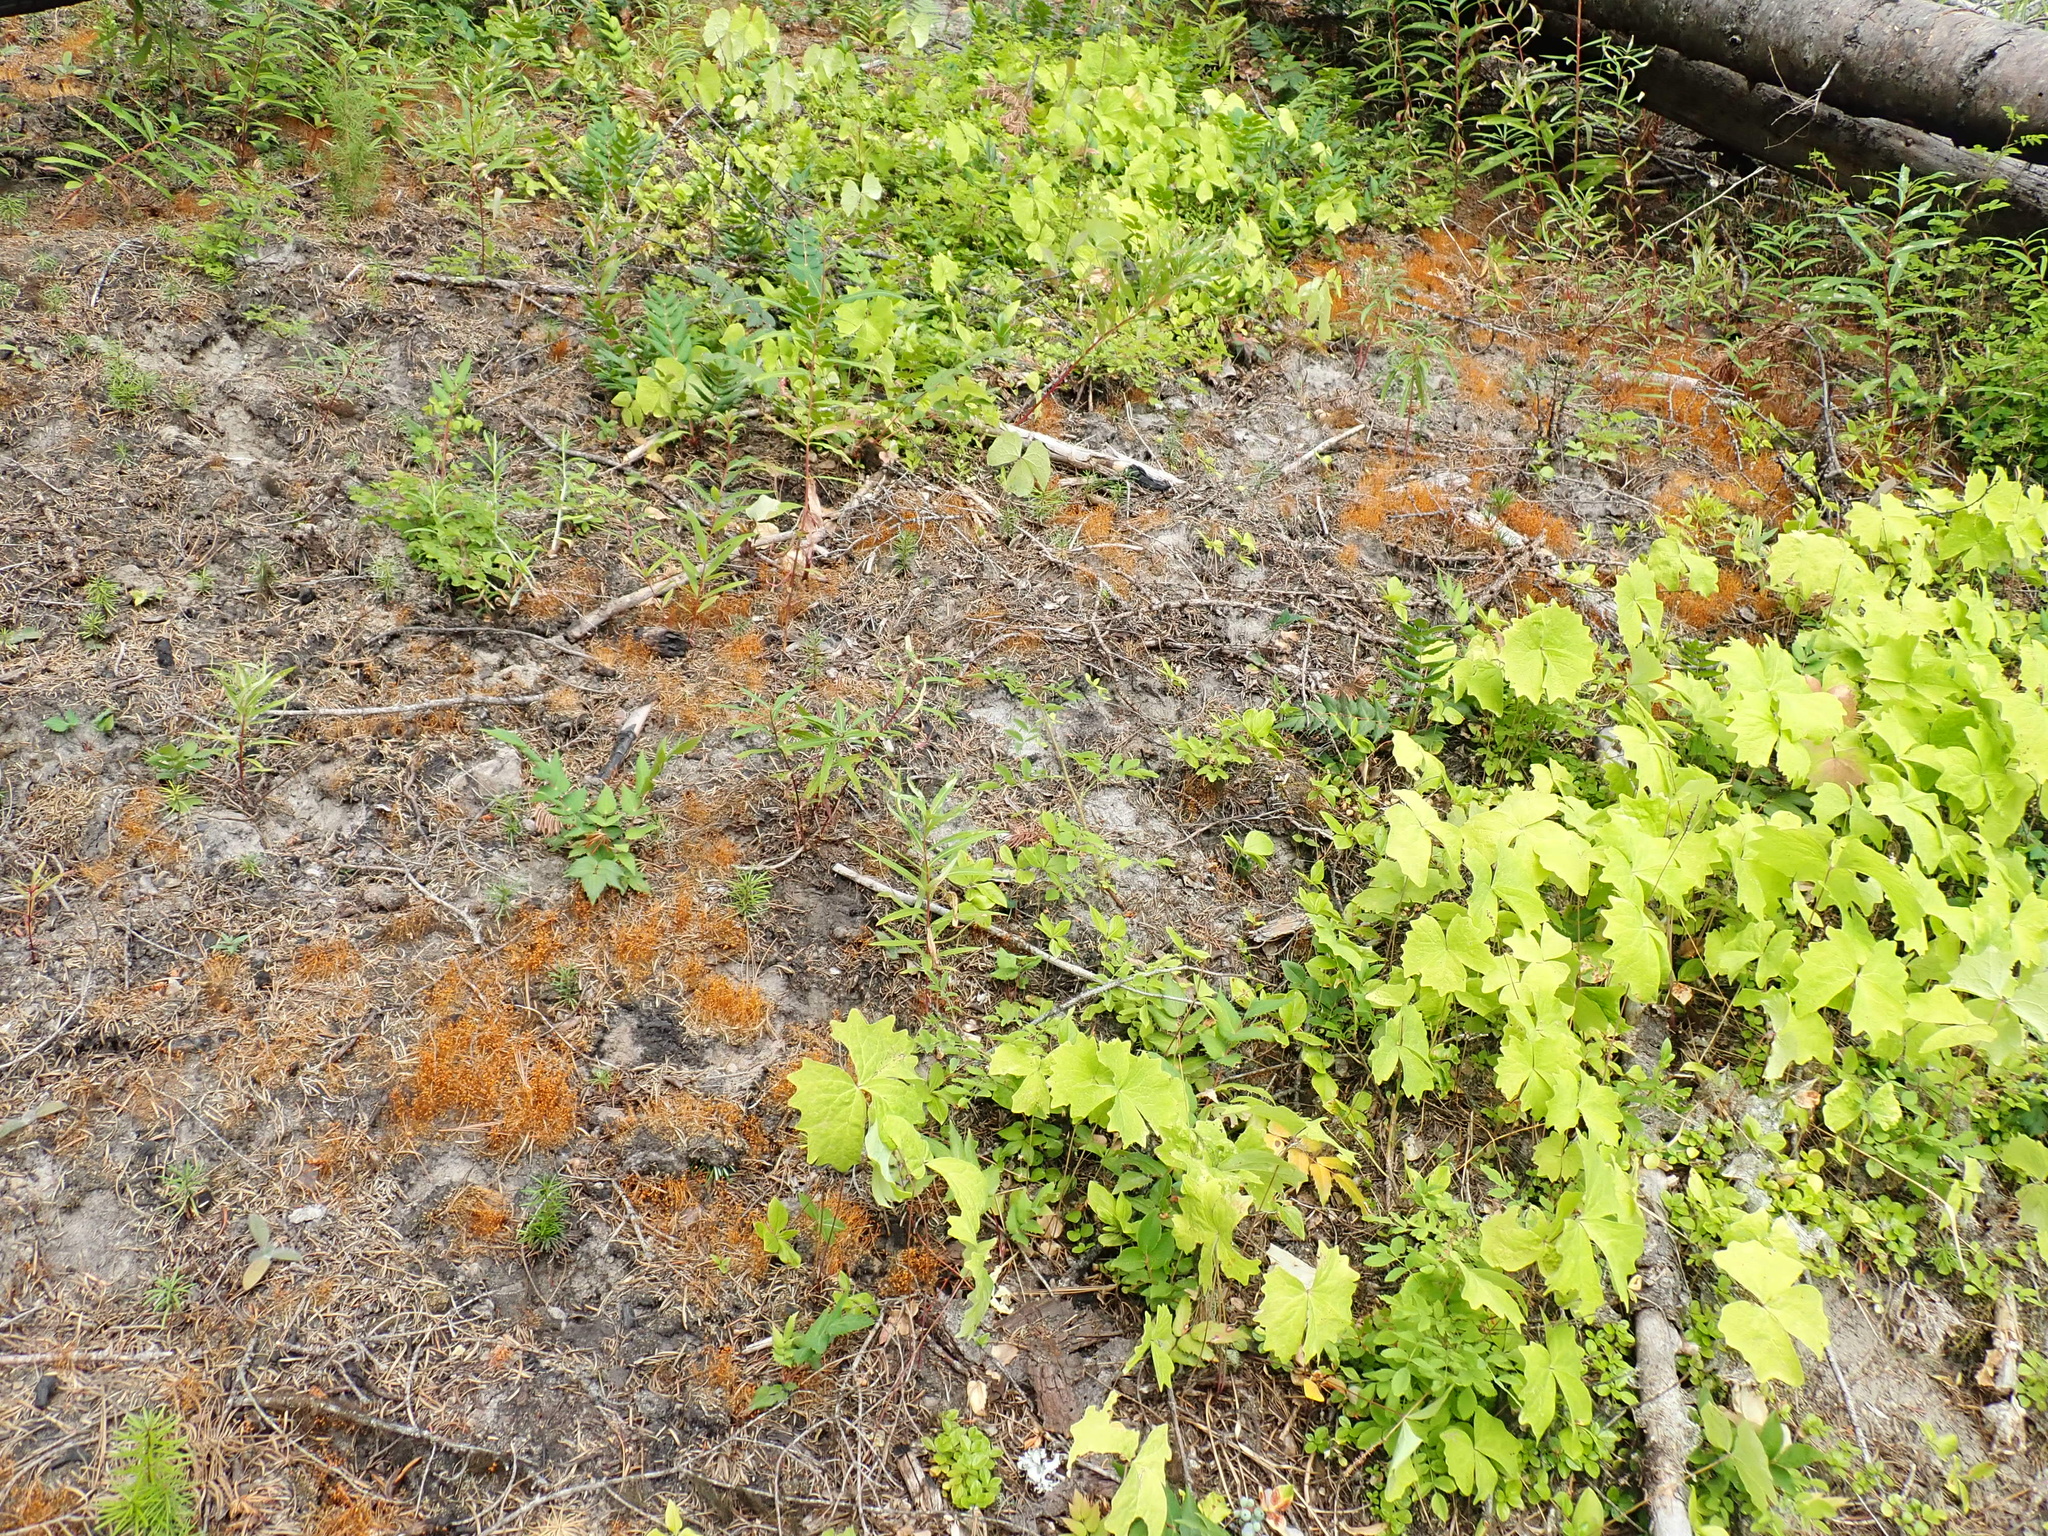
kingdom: Plantae
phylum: Bryophyta
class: Bryopsida
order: Funariales
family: Funariaceae
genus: Funaria
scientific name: Funaria hygrometrica
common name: Common cord moss
